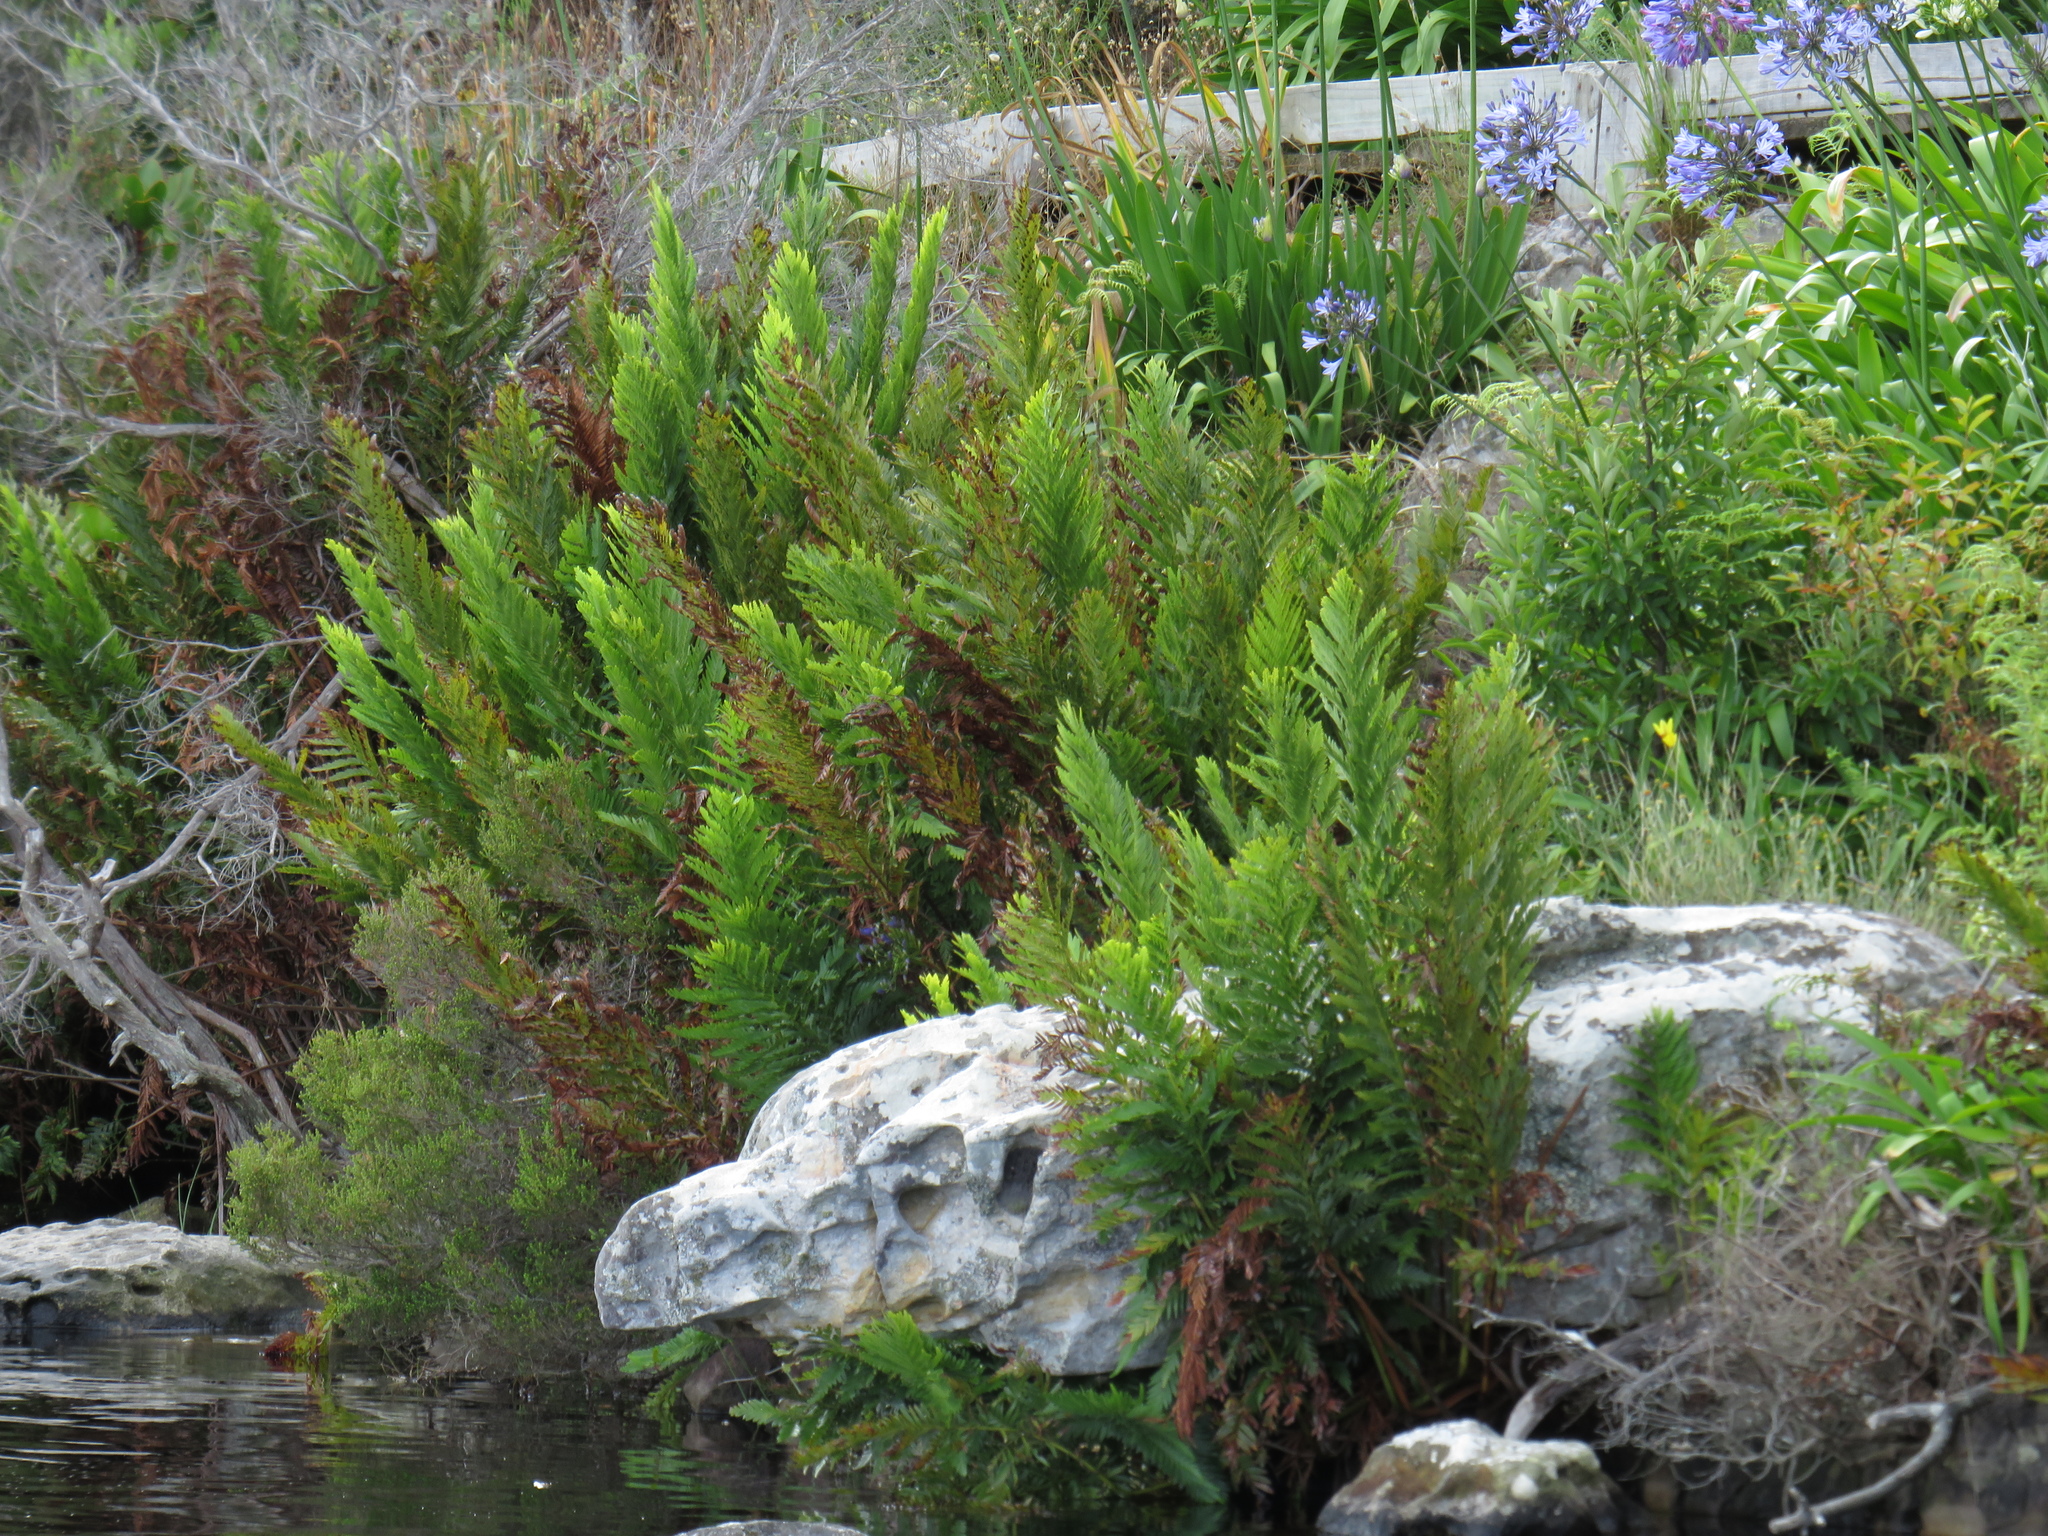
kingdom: Plantae
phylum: Tracheophyta
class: Polypodiopsida
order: Osmundales
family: Osmundaceae
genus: Todea
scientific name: Todea barbara
